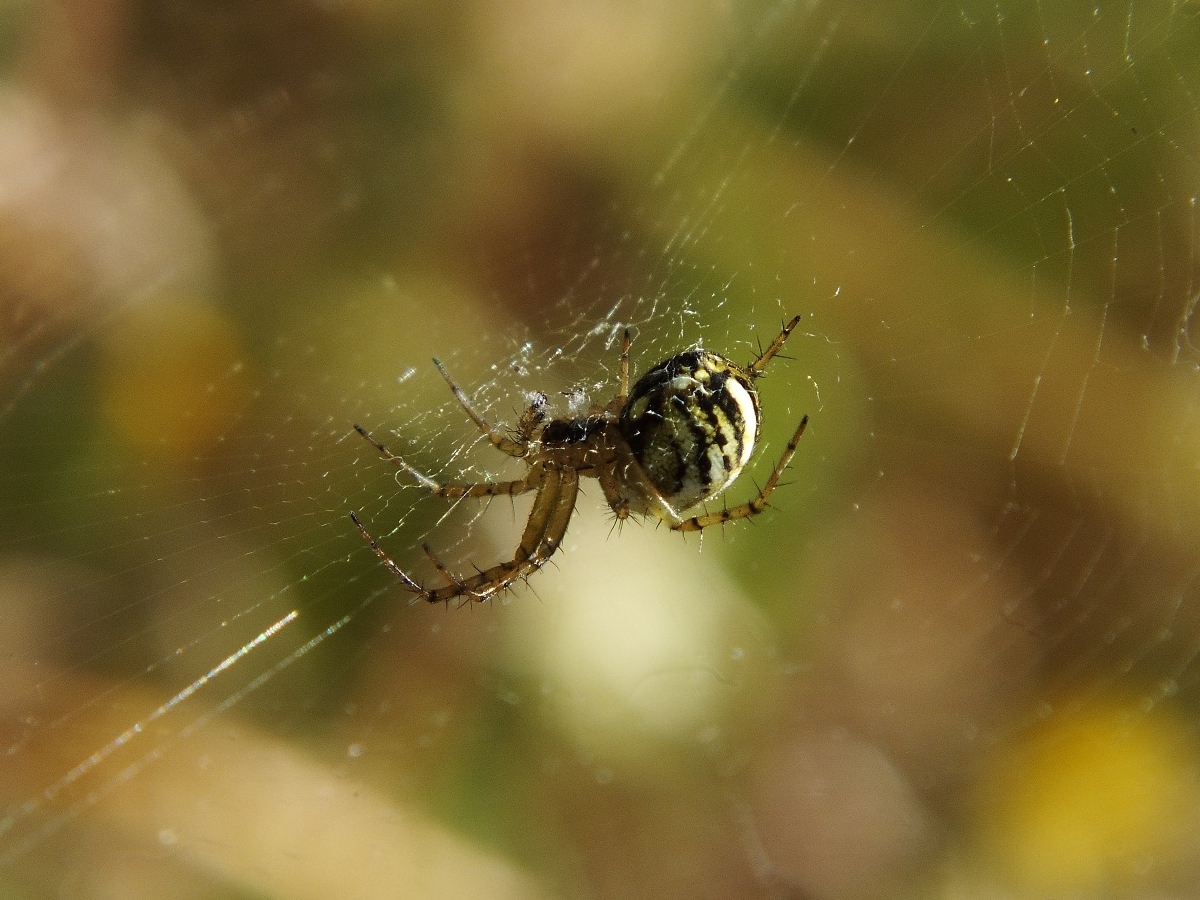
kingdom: Animalia
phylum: Arthropoda
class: Arachnida
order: Araneae
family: Araneidae
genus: Mangora
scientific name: Mangora acalypha
